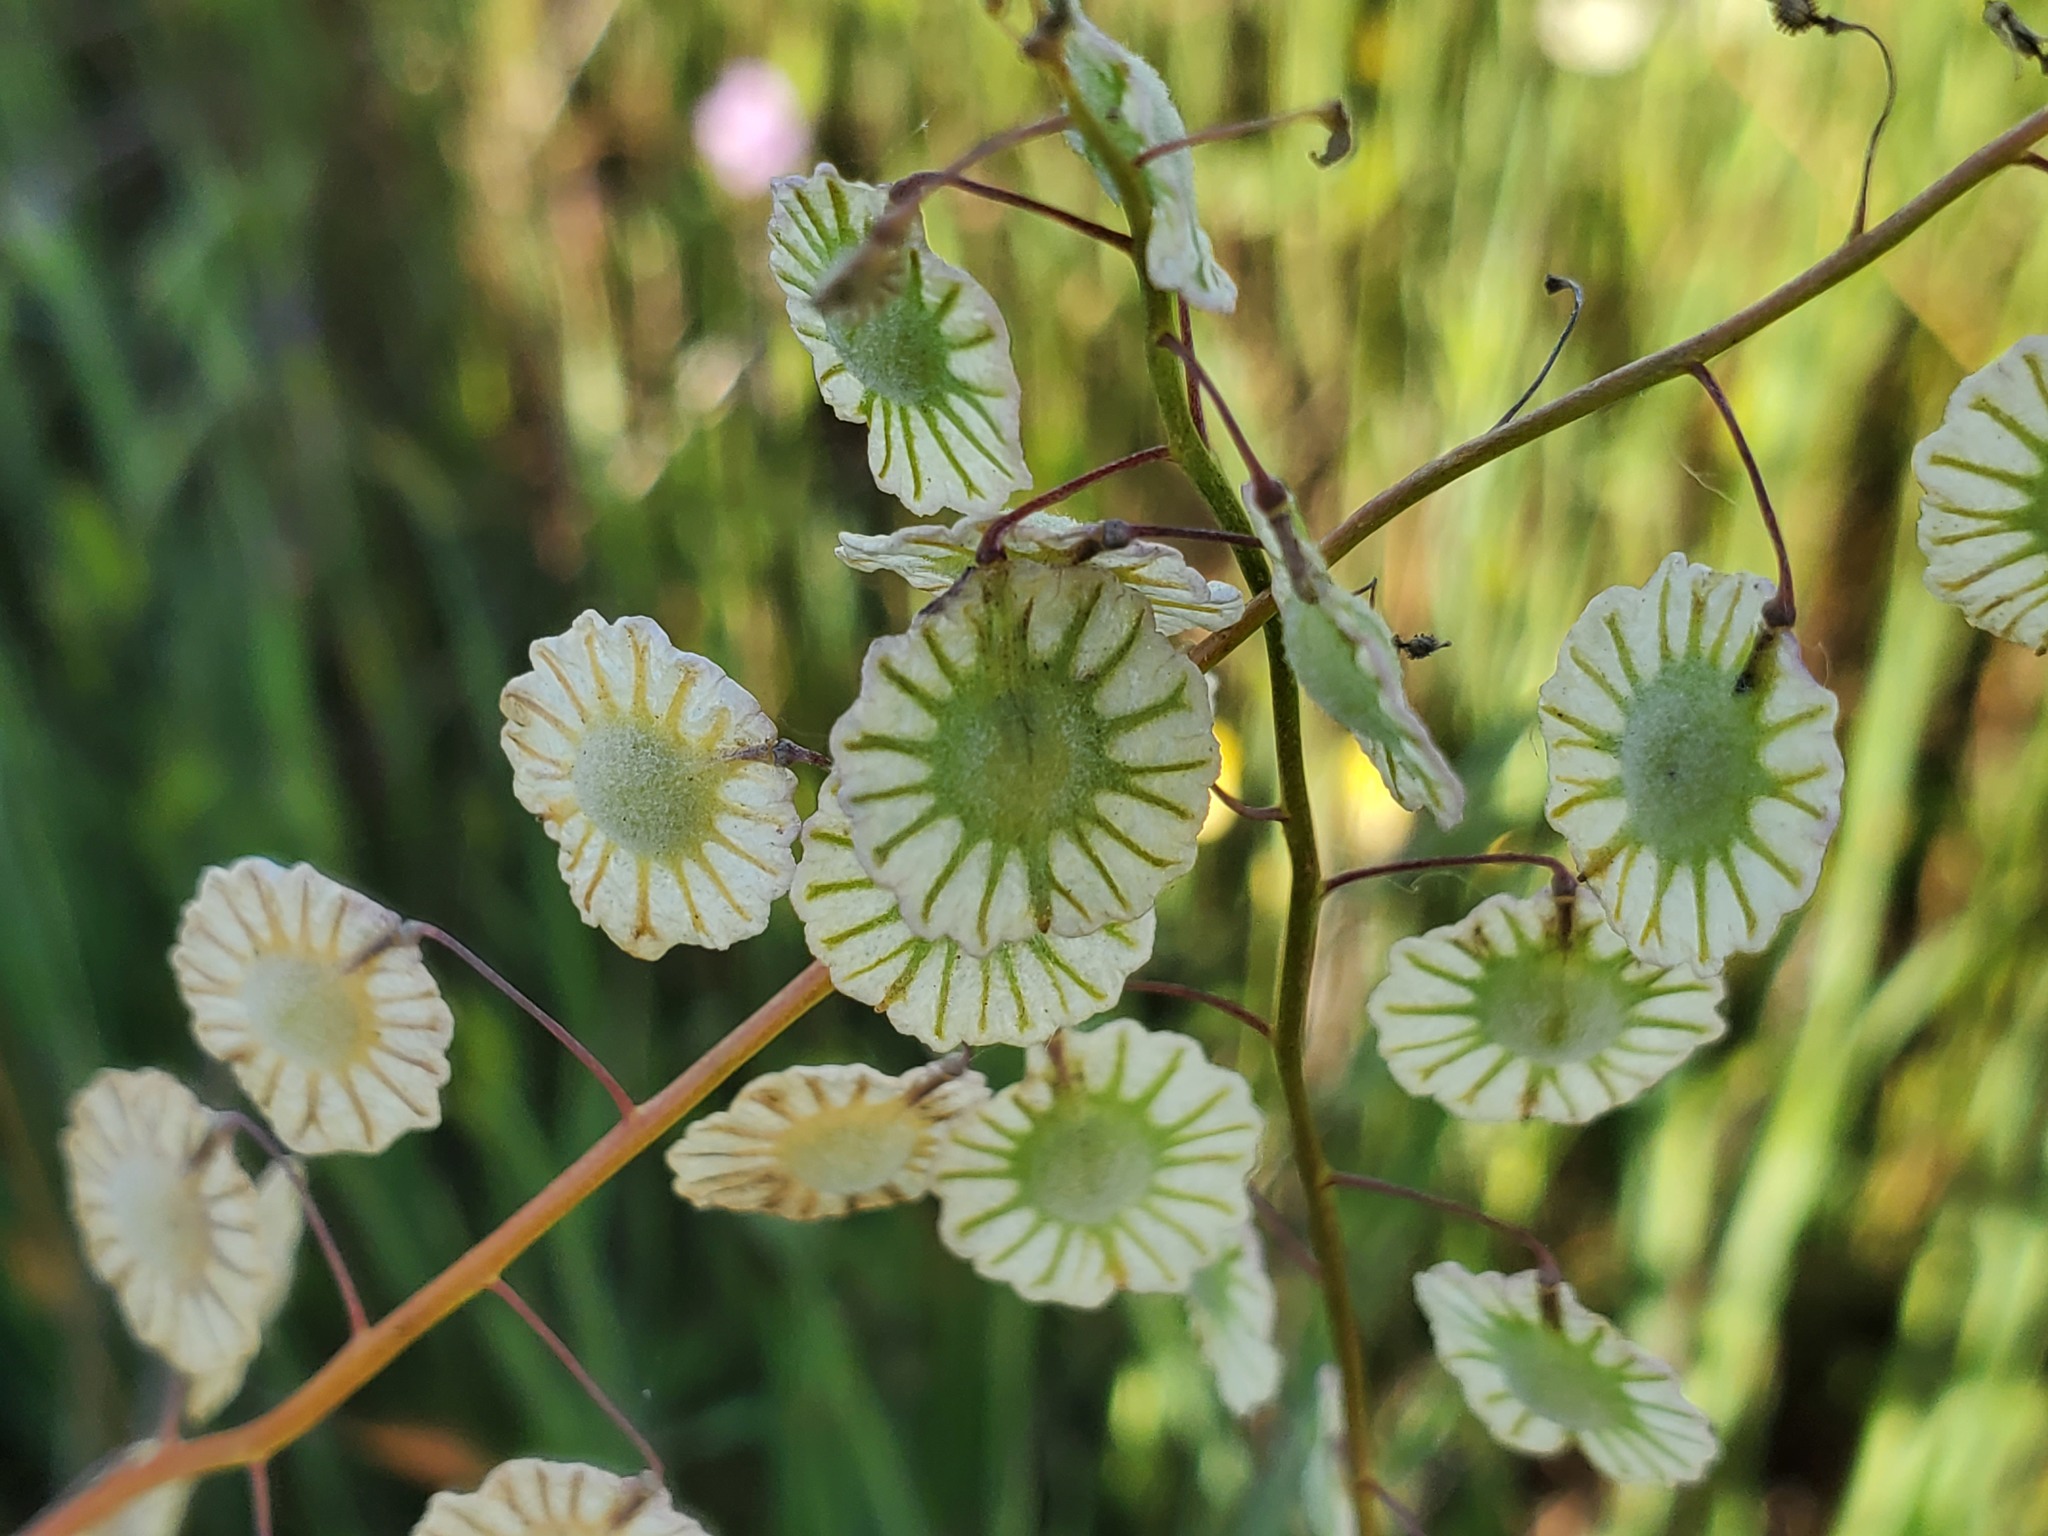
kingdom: Plantae
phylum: Tracheophyta
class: Magnoliopsida
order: Brassicales
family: Brassicaceae
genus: Thysanocarpus
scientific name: Thysanocarpus radians
